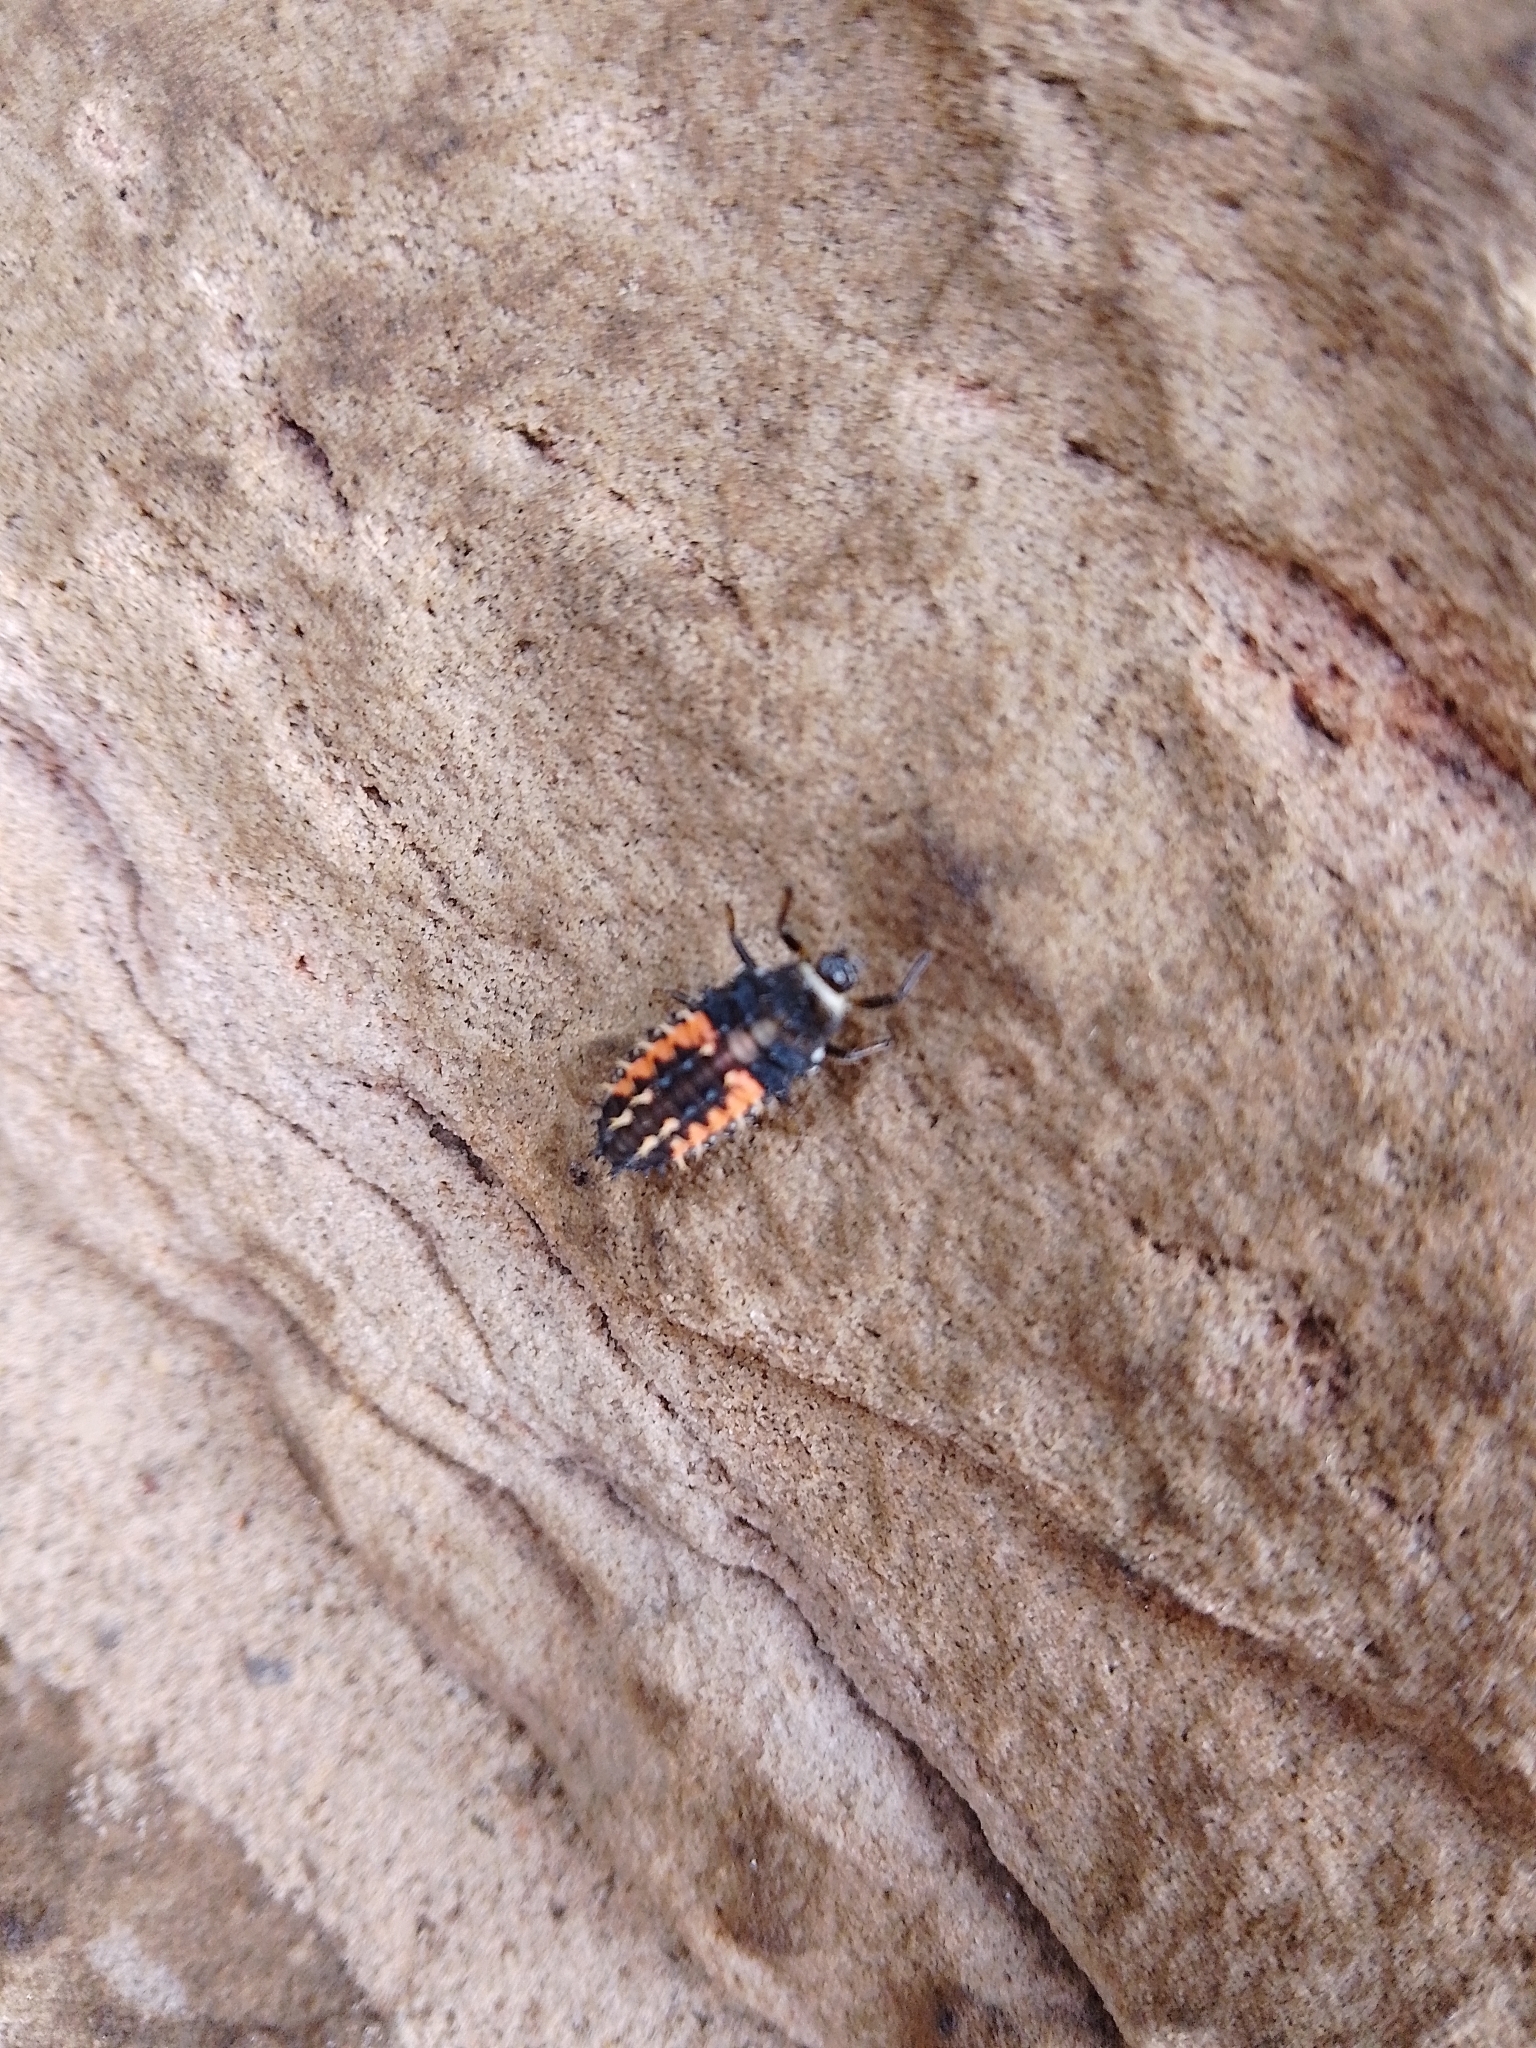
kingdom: Animalia
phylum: Arthropoda
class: Insecta
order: Coleoptera
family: Coccinellidae
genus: Harmonia
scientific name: Harmonia axyridis
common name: Harlequin ladybird
